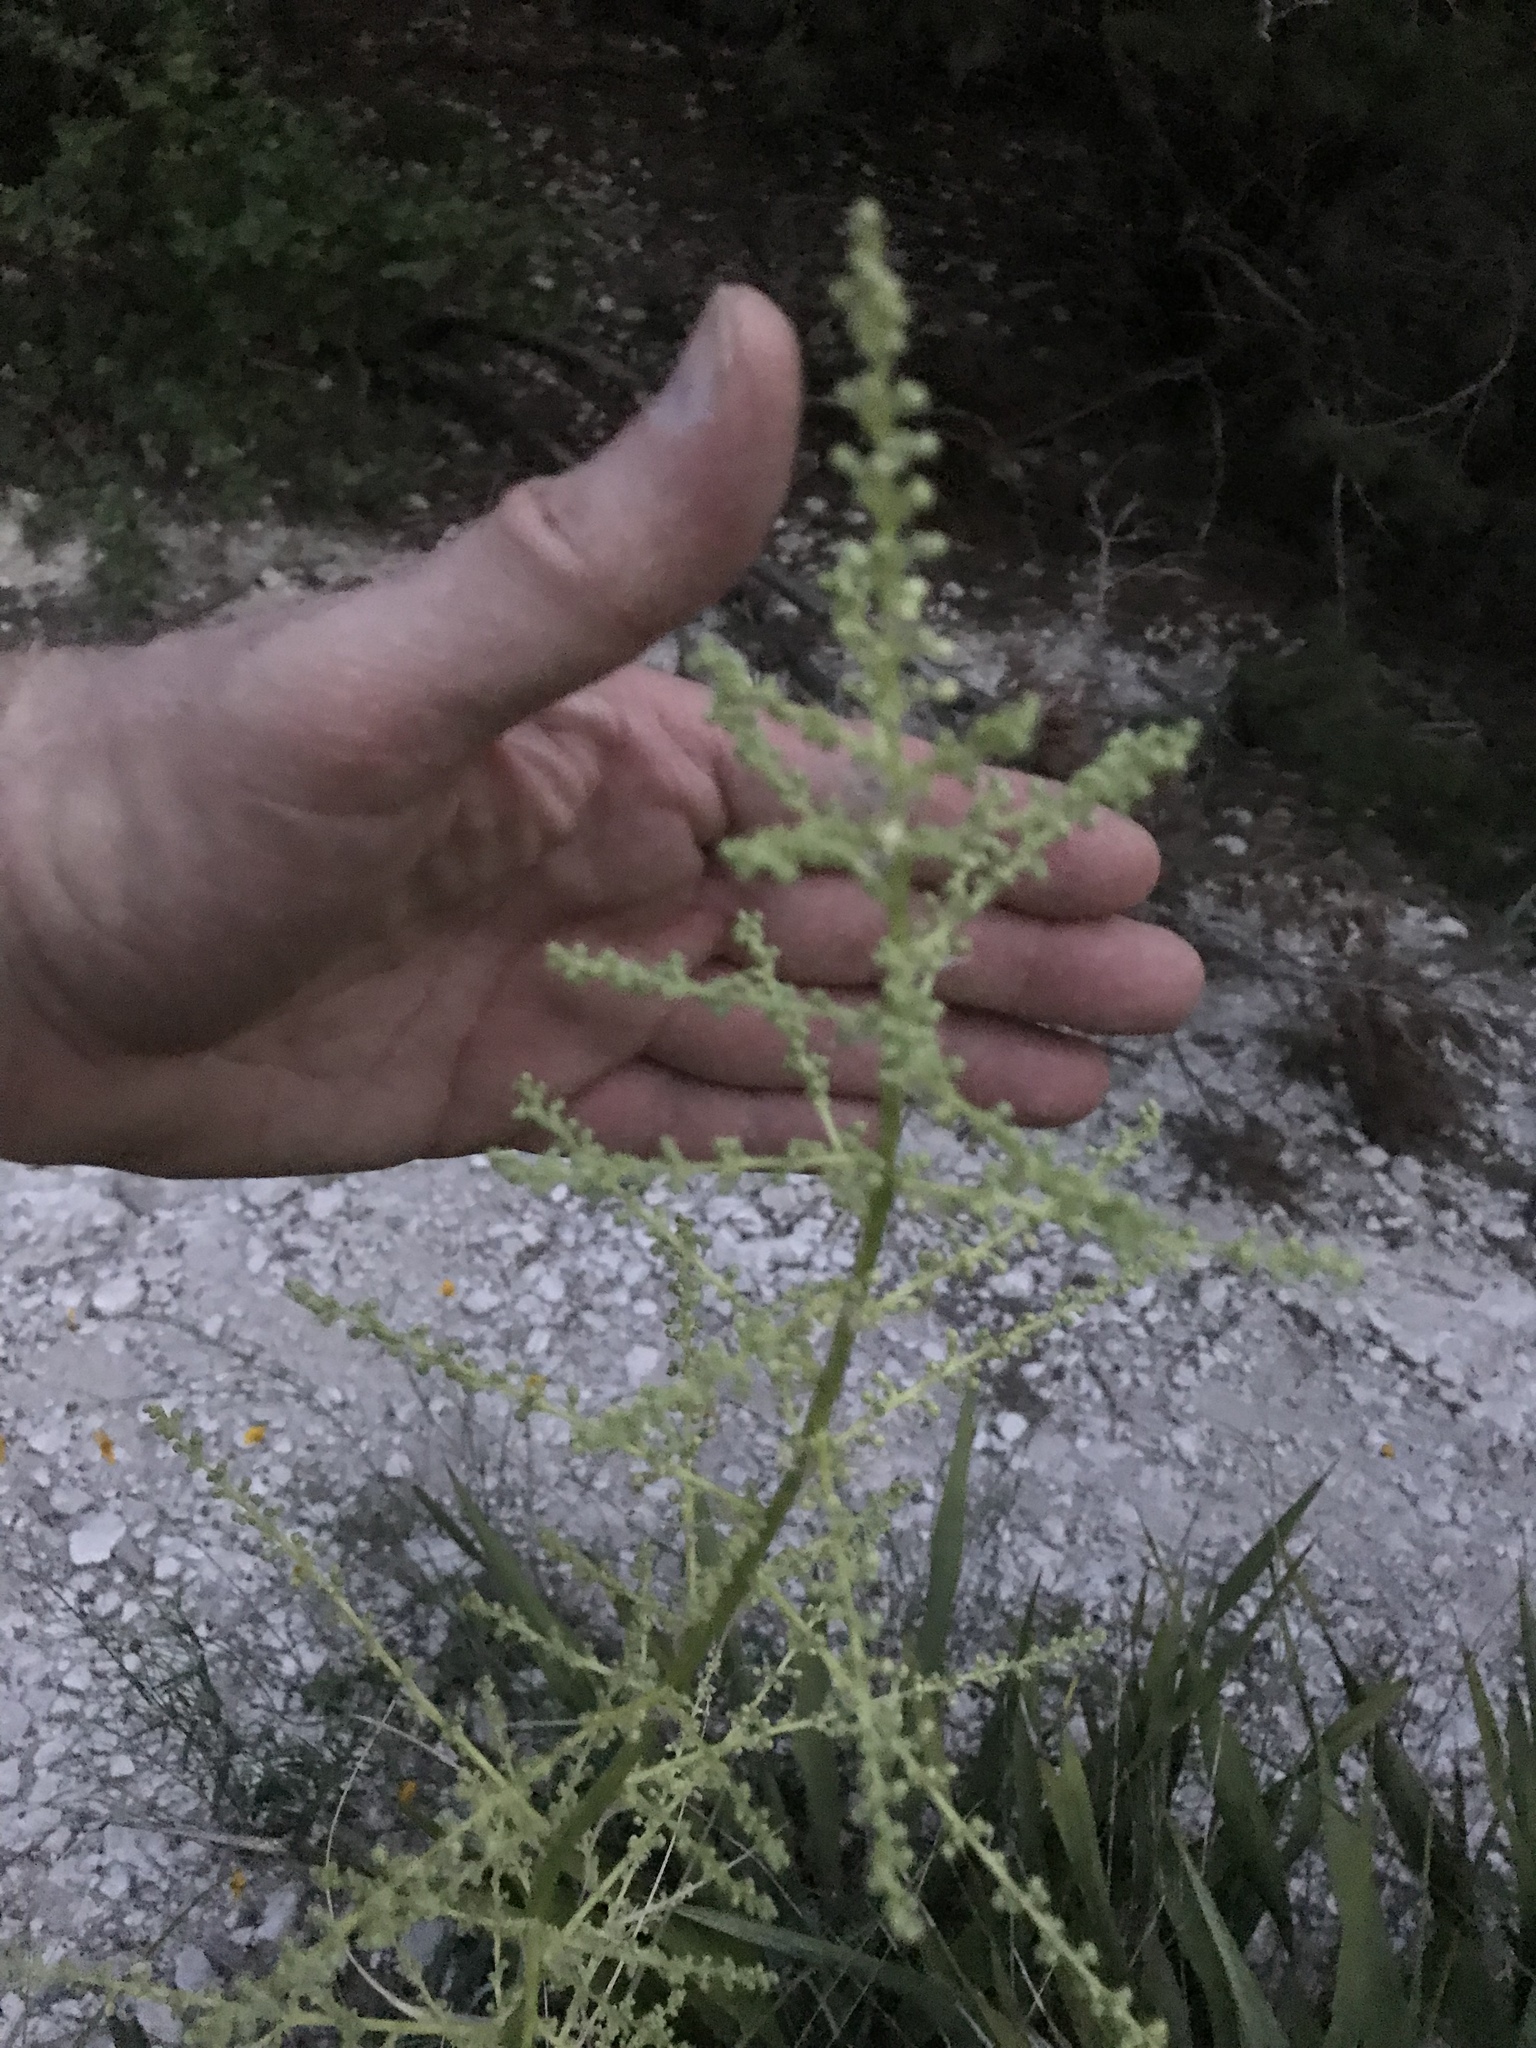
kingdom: Plantae
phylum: Tracheophyta
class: Liliopsida
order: Asparagales
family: Asparagaceae
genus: Nolina
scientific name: Nolina lindheimeriana
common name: Lindheimer's bear-grass
